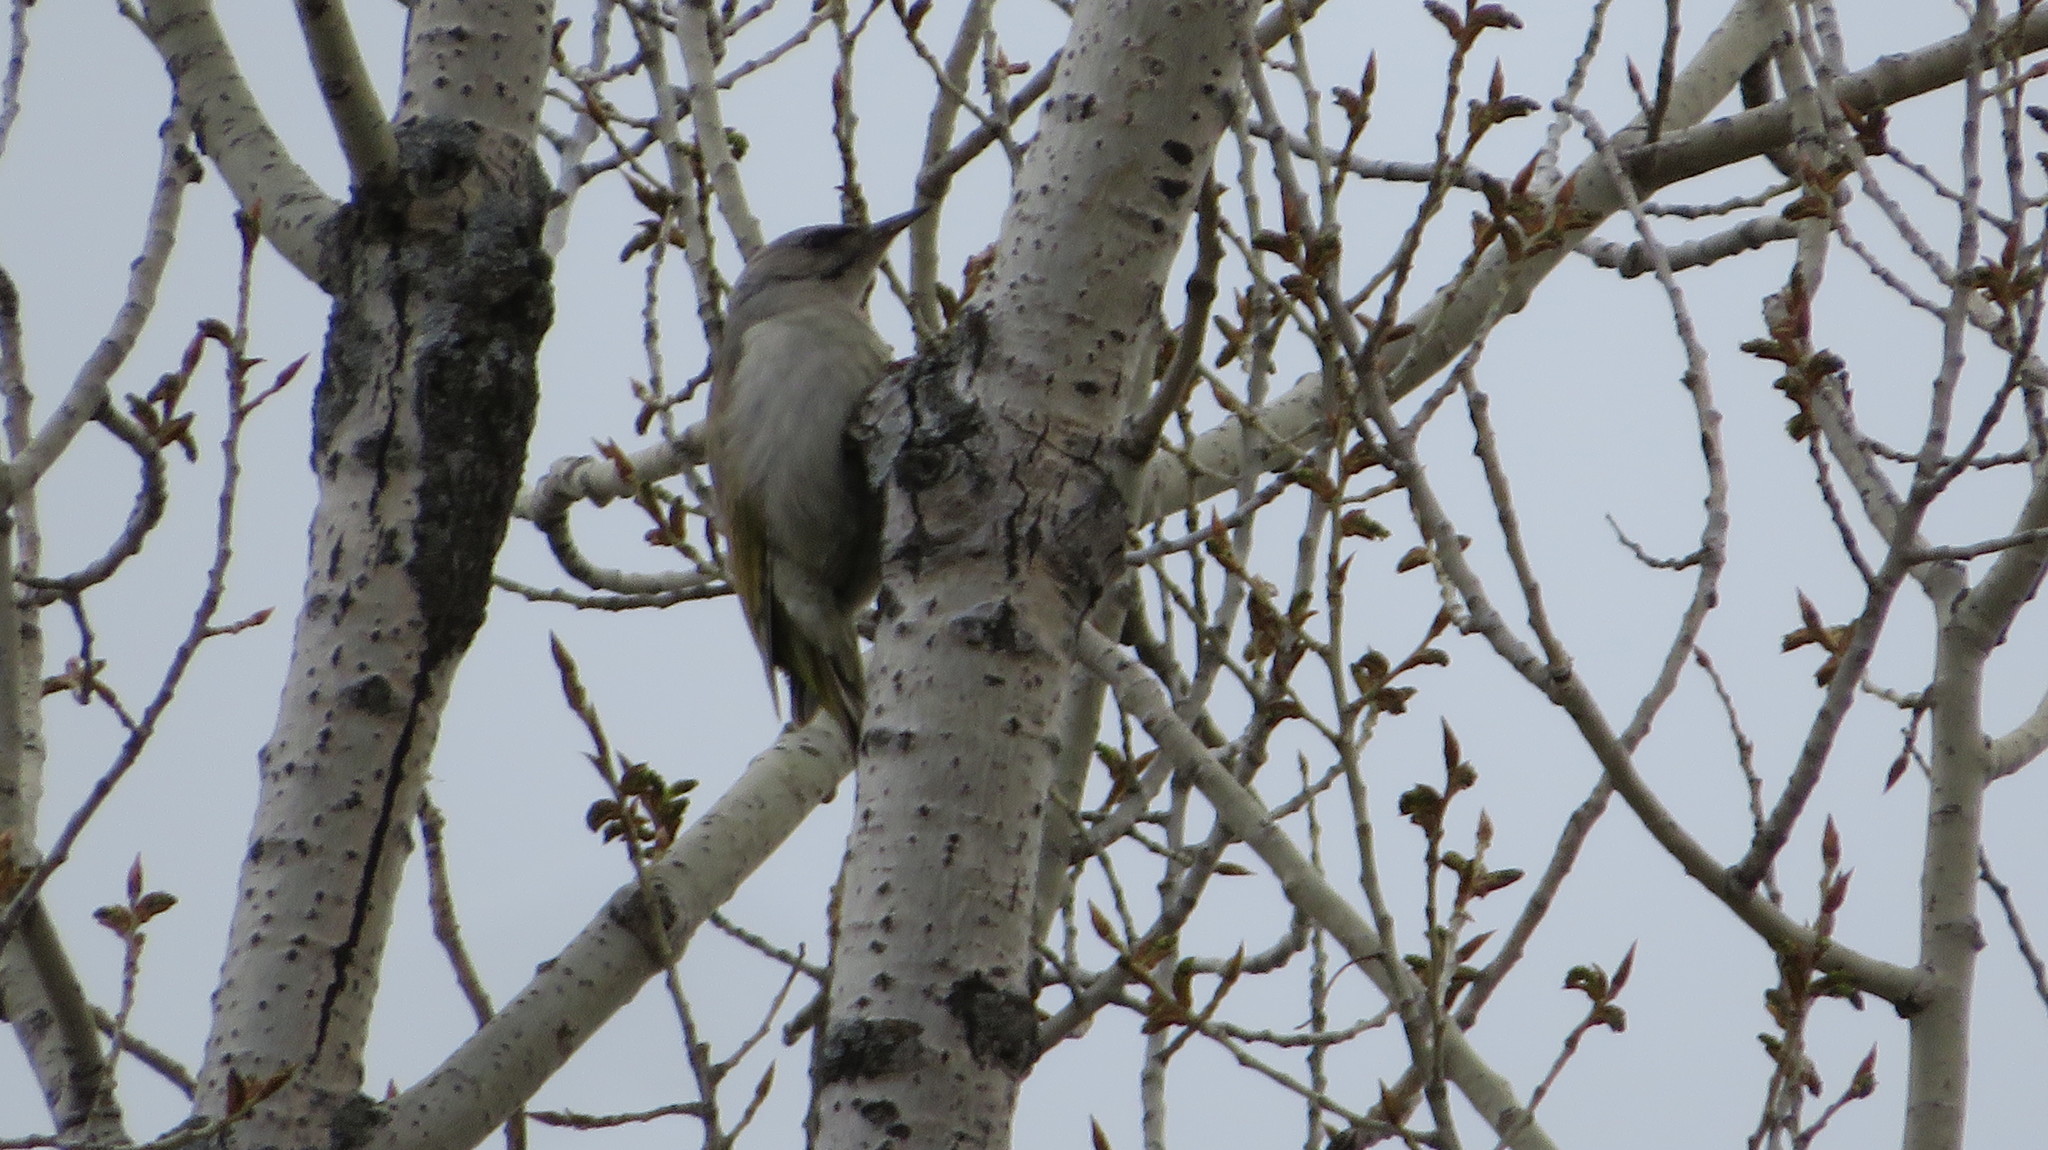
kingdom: Animalia
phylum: Chordata
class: Aves
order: Piciformes
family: Picidae
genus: Picus
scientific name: Picus canus
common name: Grey-headed woodpecker
